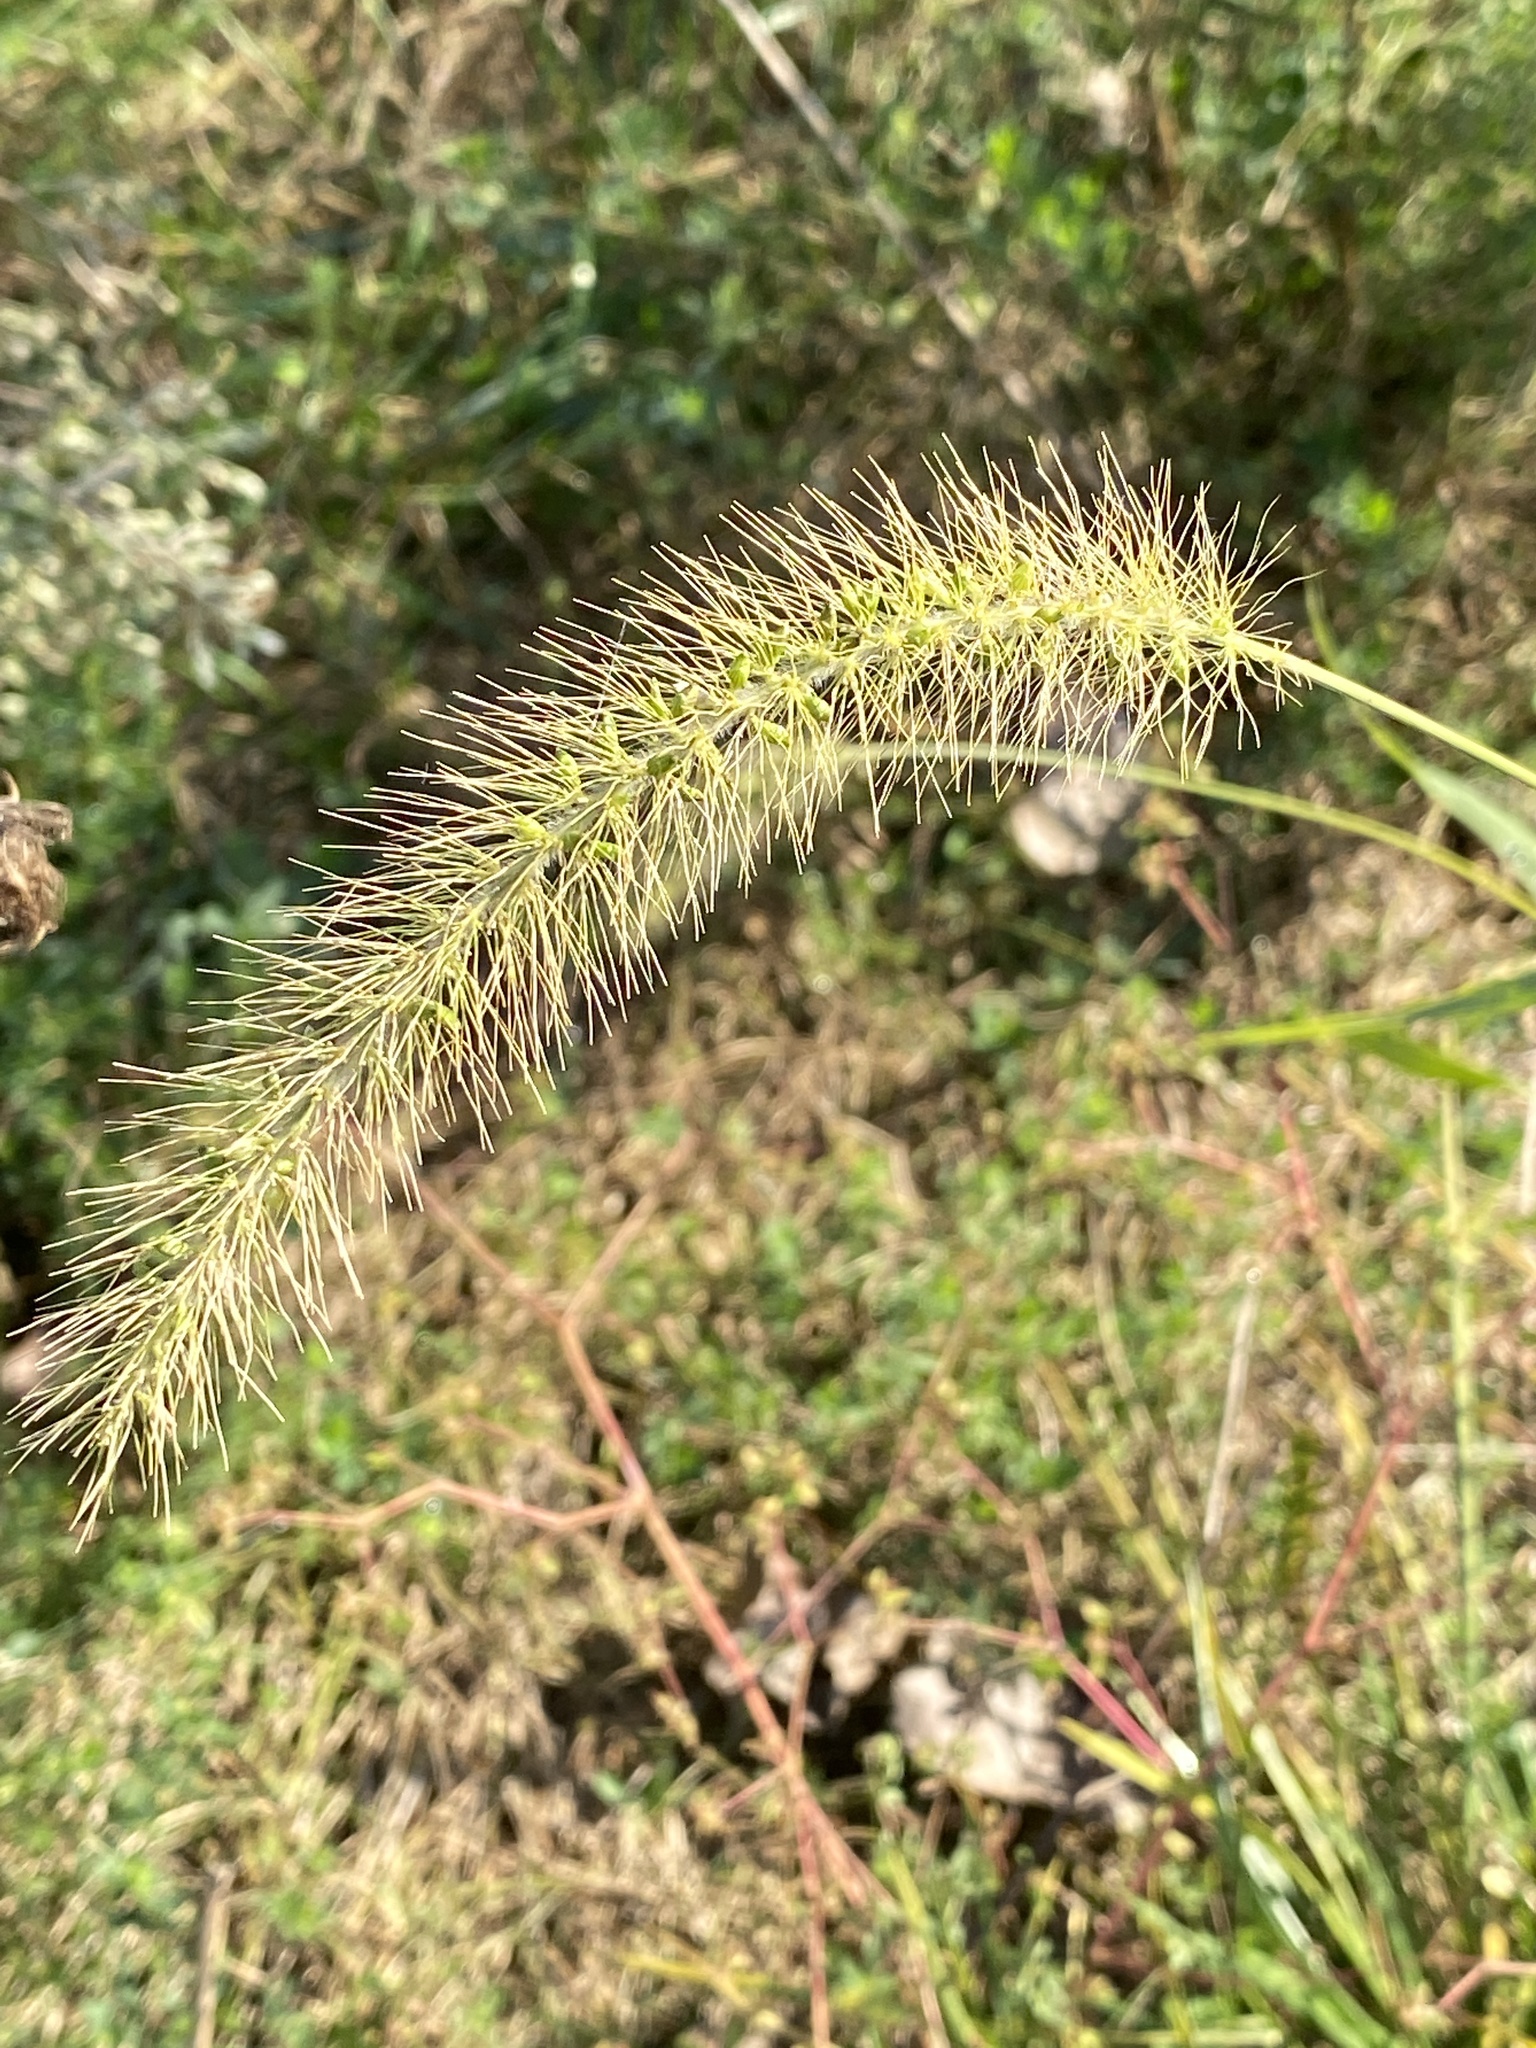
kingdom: Plantae
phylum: Tracheophyta
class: Liliopsida
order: Poales
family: Poaceae
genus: Setaria
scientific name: Setaria faberi
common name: Nodding bristle-grass
